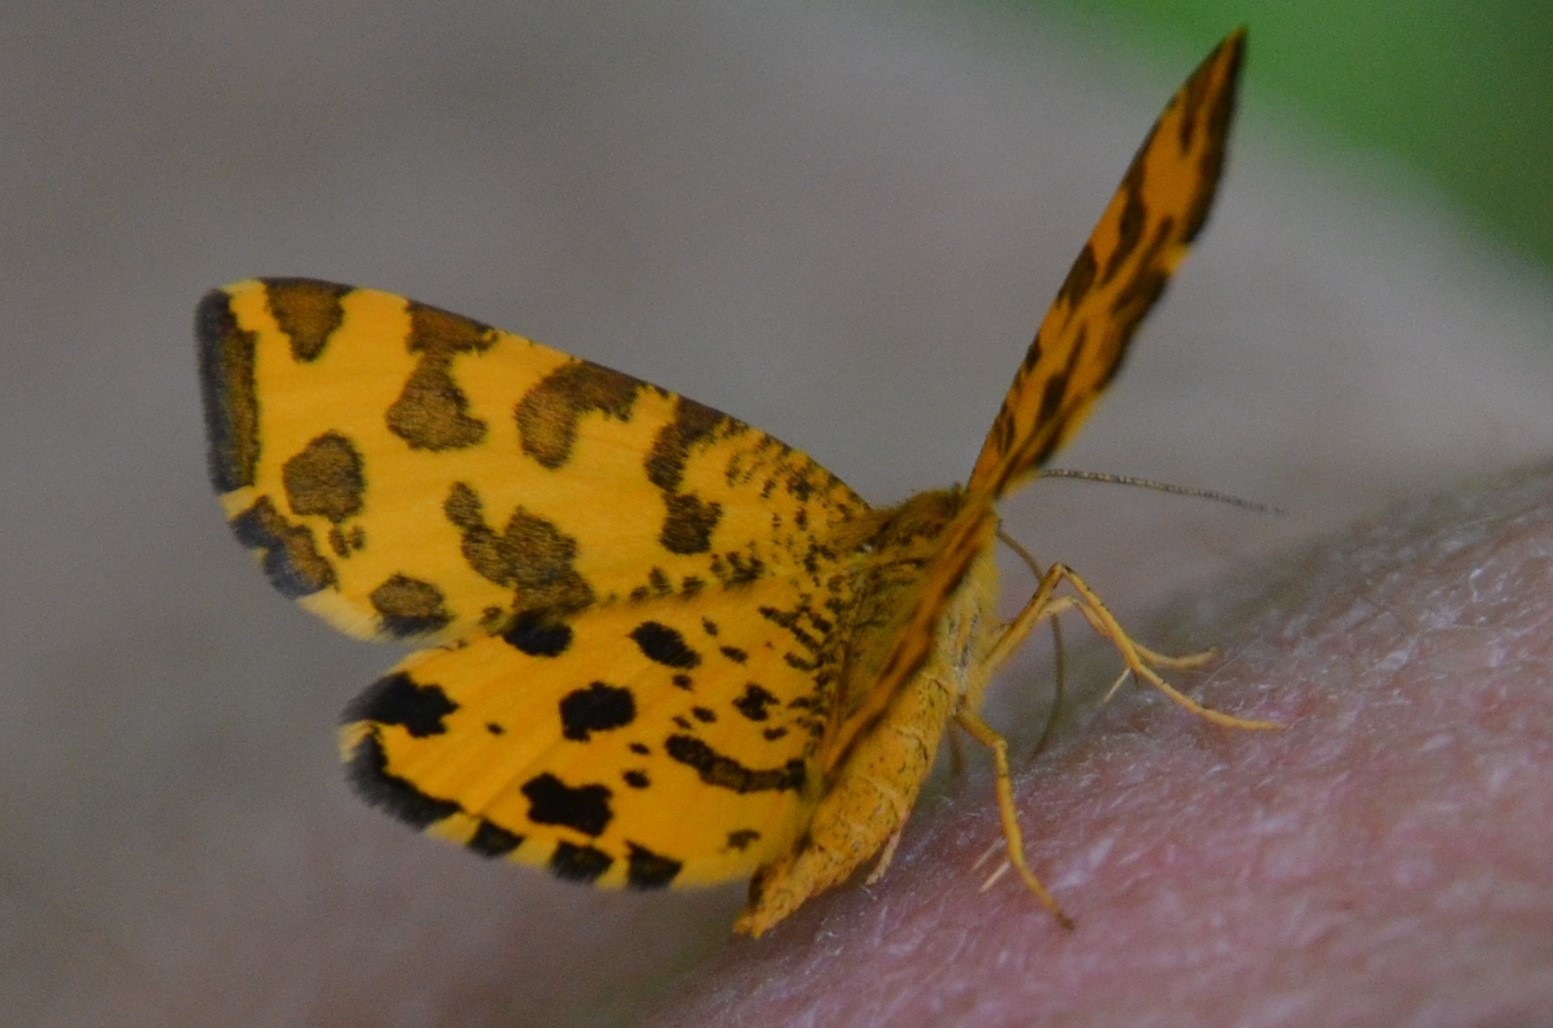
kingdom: Animalia
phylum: Arthropoda
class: Insecta
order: Lepidoptera
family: Geometridae
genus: Pseudopanthera
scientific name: Pseudopanthera macularia
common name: Speckled yellow
